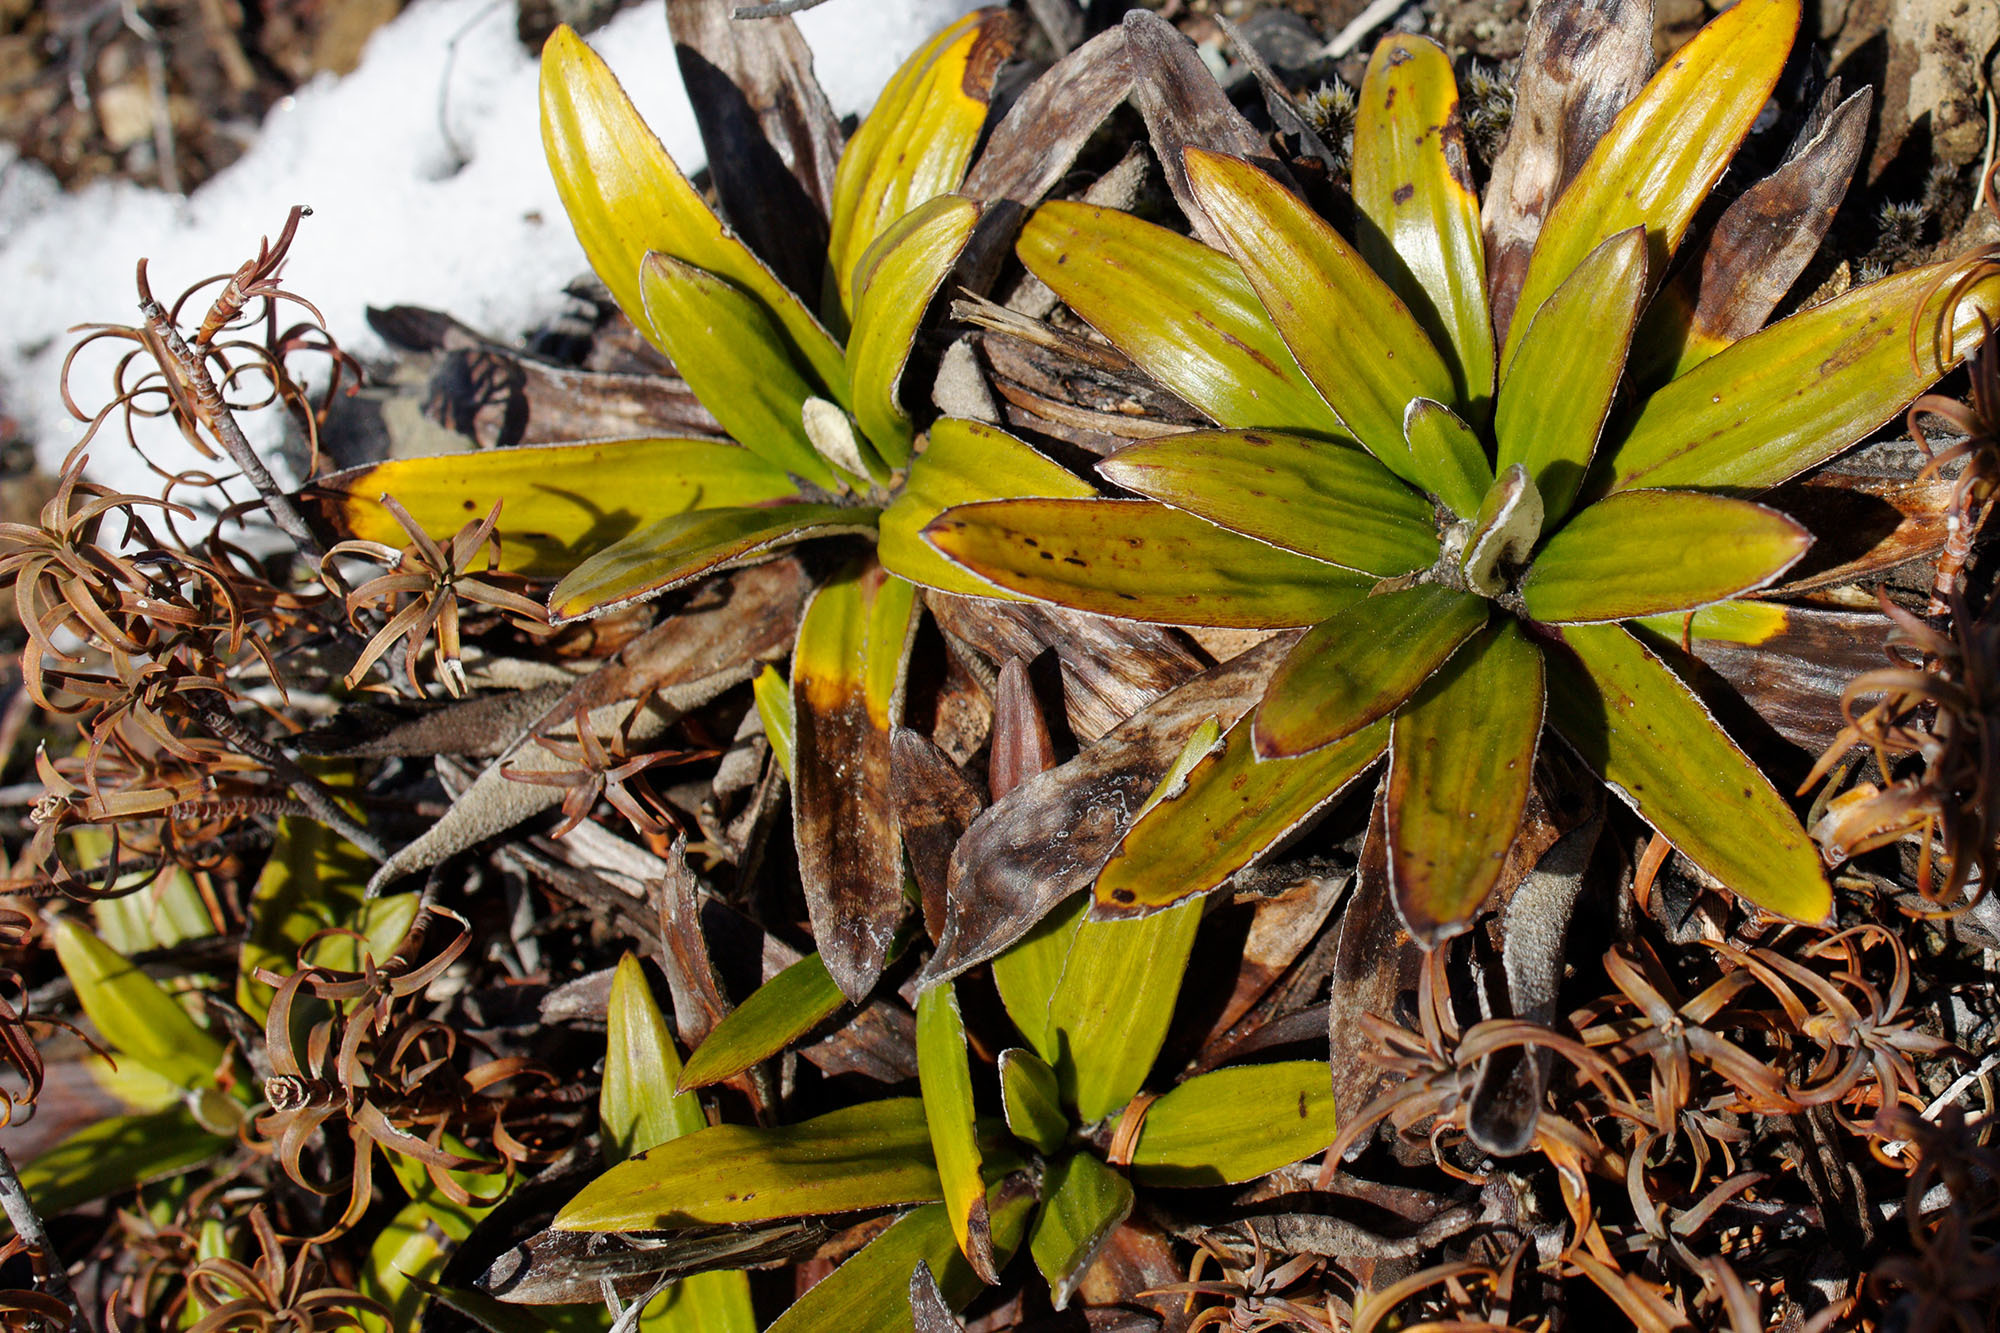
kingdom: Plantae
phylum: Tracheophyta
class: Magnoliopsida
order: Asterales
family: Asteraceae
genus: Celmisia
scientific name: Celmisia spectabilis
